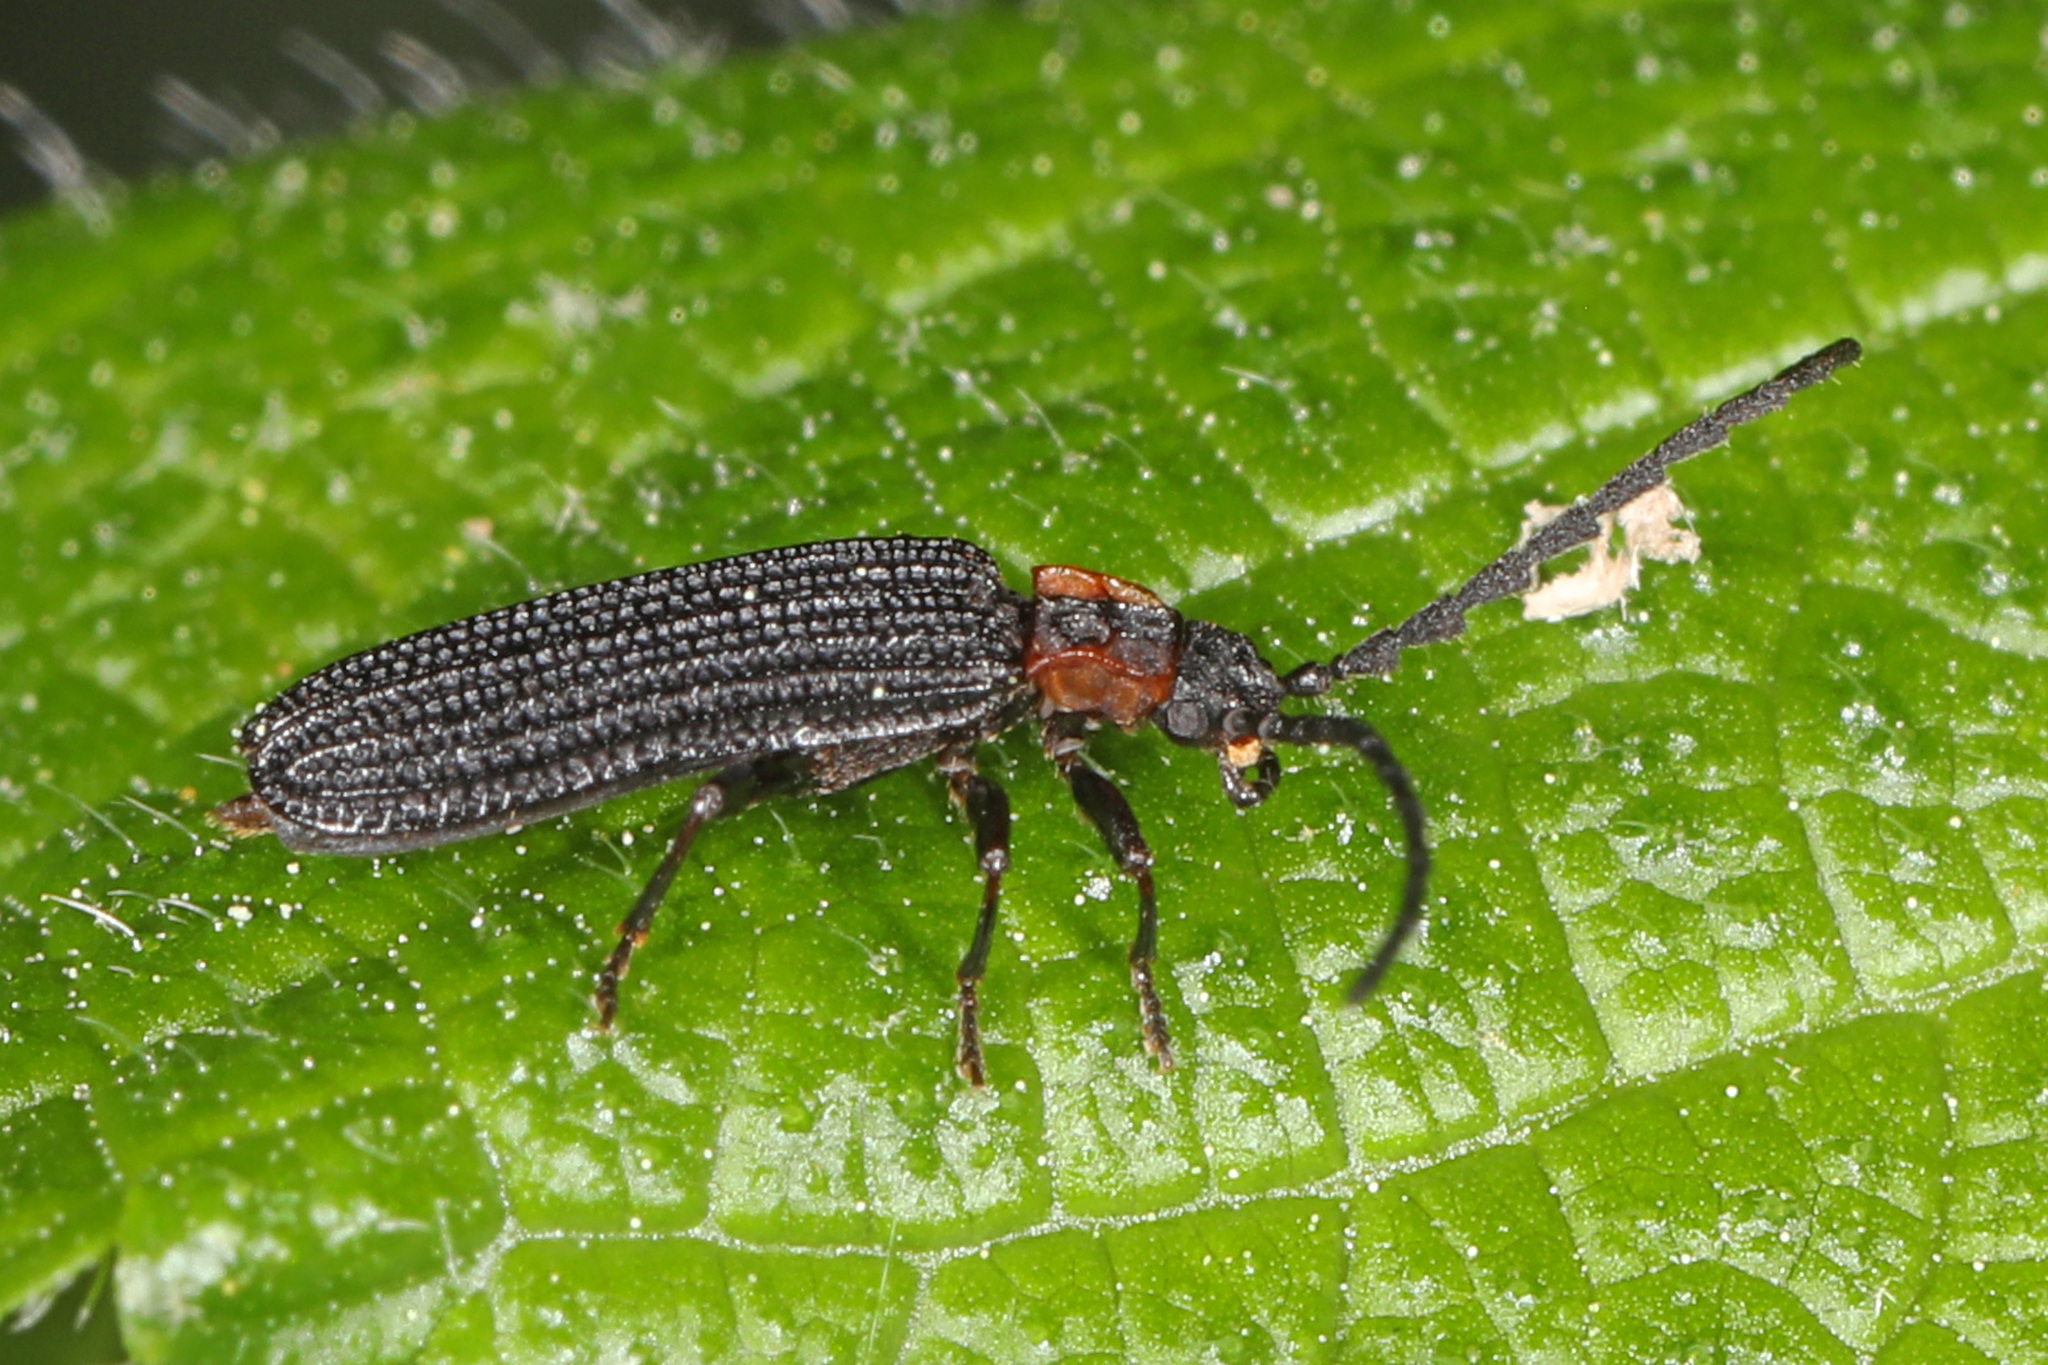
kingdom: Animalia
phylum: Arthropoda
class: Insecta
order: Coleoptera
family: Lycidae
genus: Erotides
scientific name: Erotides sculptilis
